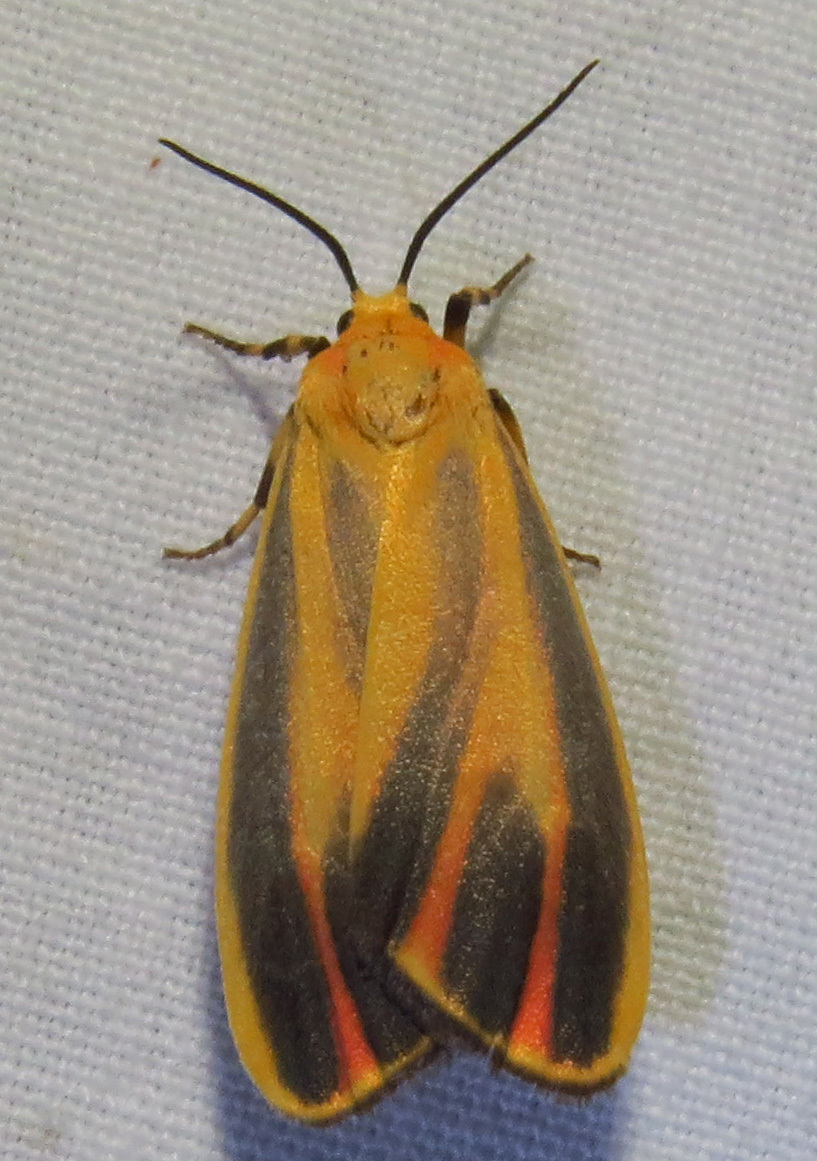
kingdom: Animalia
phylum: Arthropoda
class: Insecta
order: Lepidoptera
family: Erebidae
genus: Hypoprepia
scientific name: Hypoprepia fucosa
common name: Painted lichen moth
